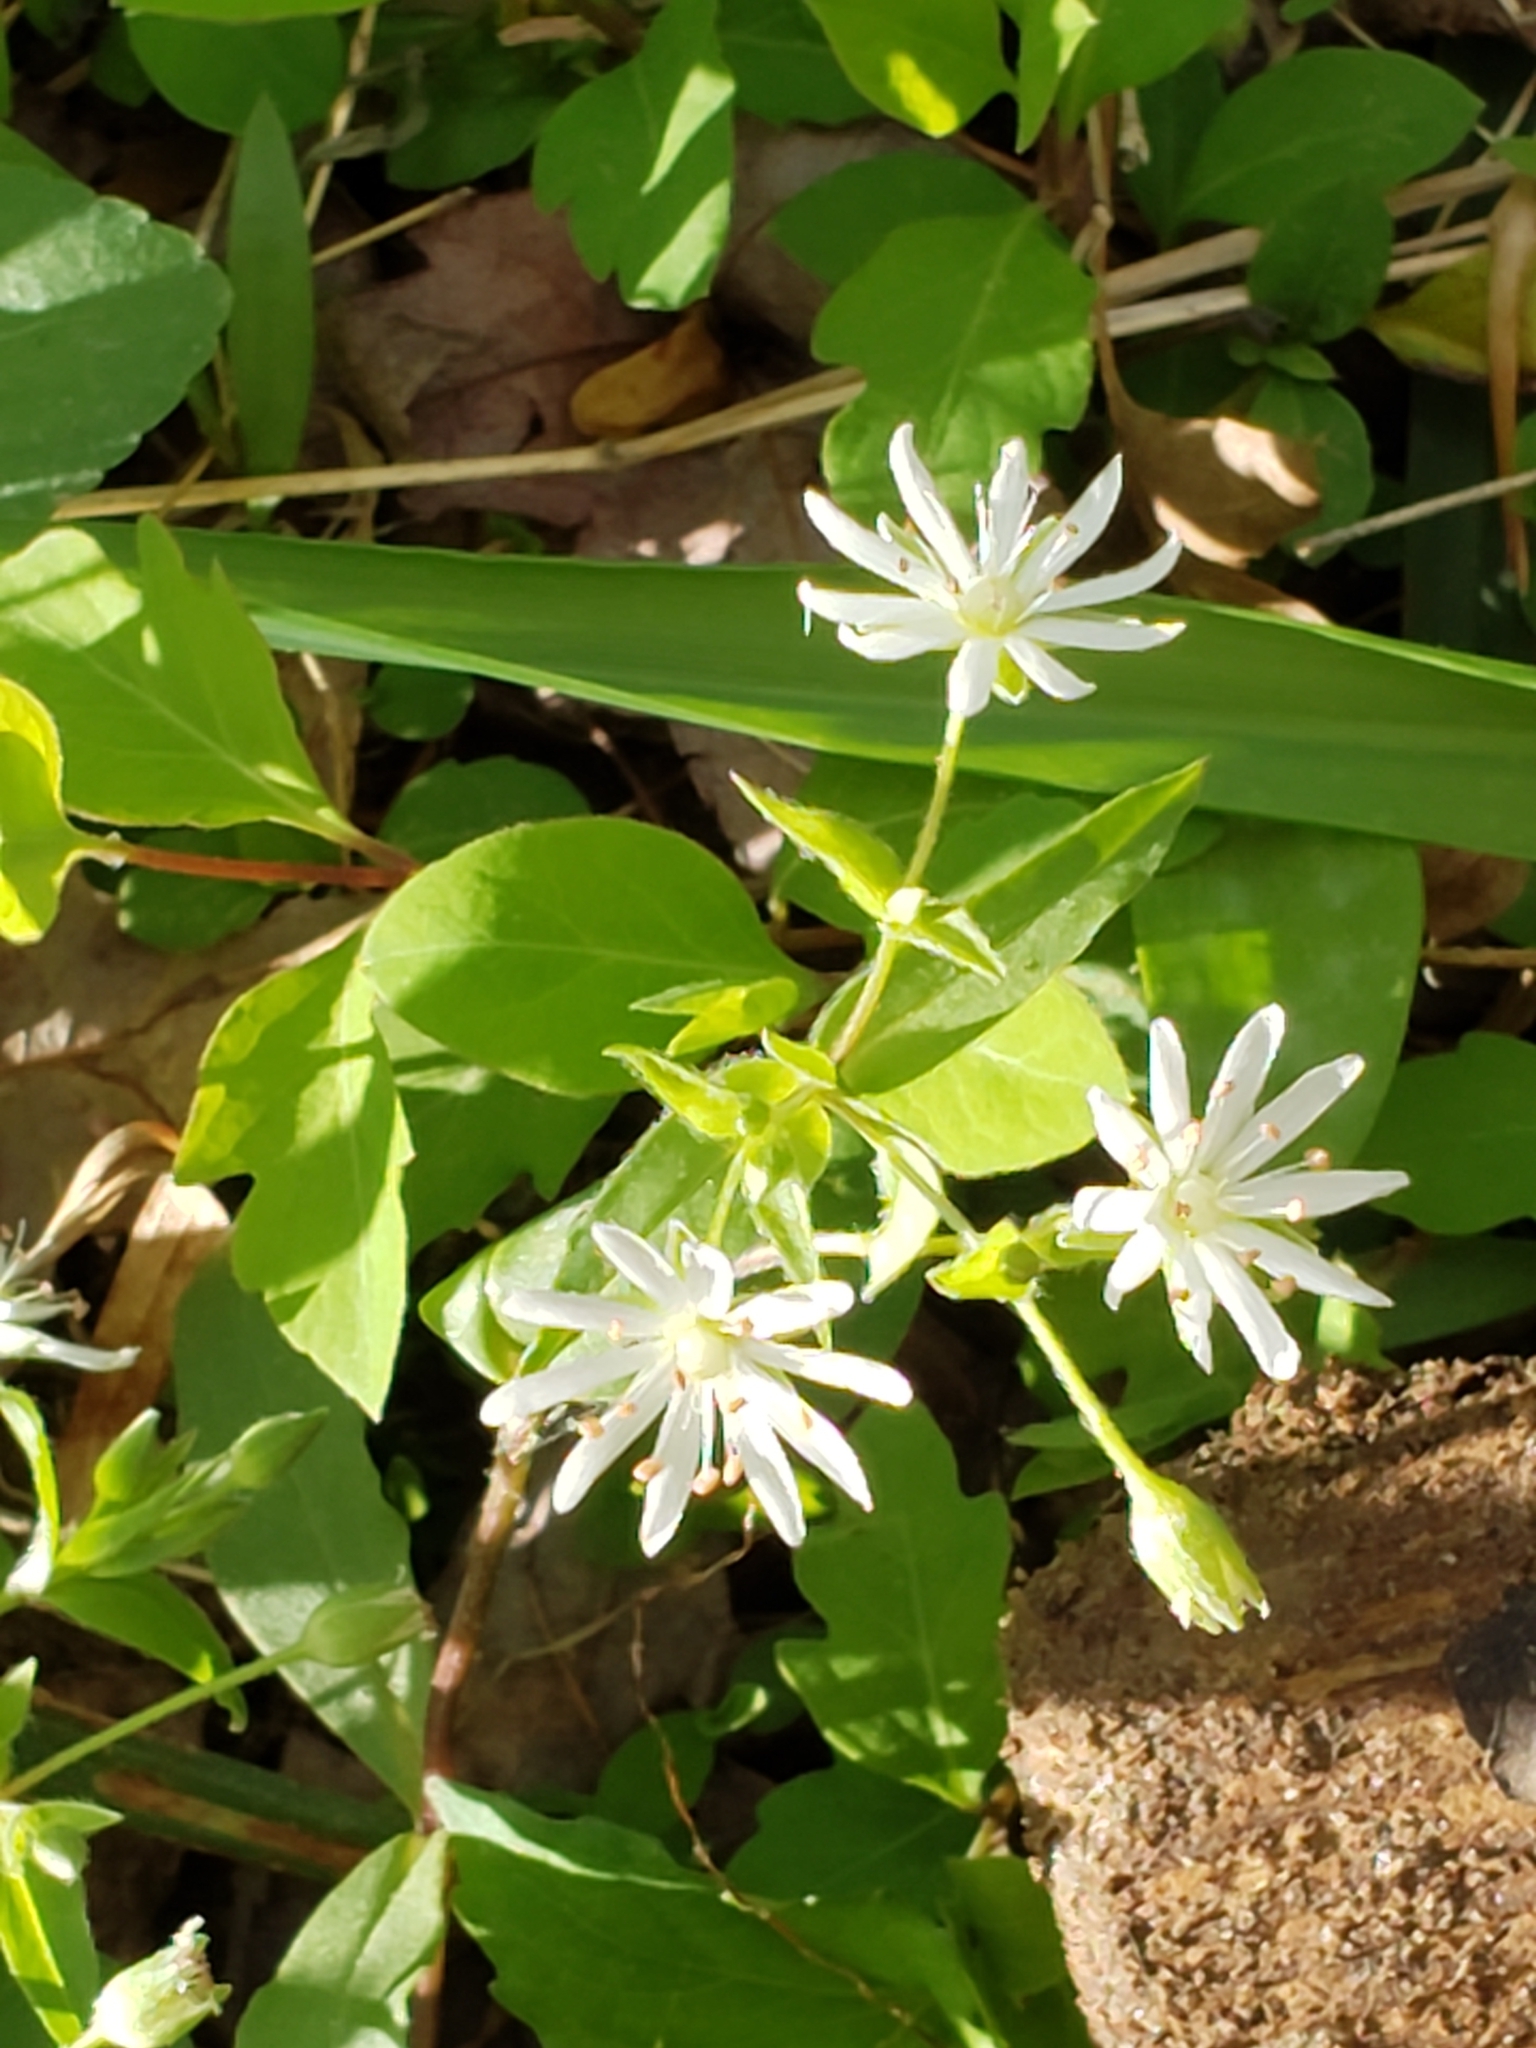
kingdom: Plantae
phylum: Tracheophyta
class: Magnoliopsida
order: Caryophyllales
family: Caryophyllaceae
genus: Stellaria
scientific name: Stellaria pubera
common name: Star chickweed
